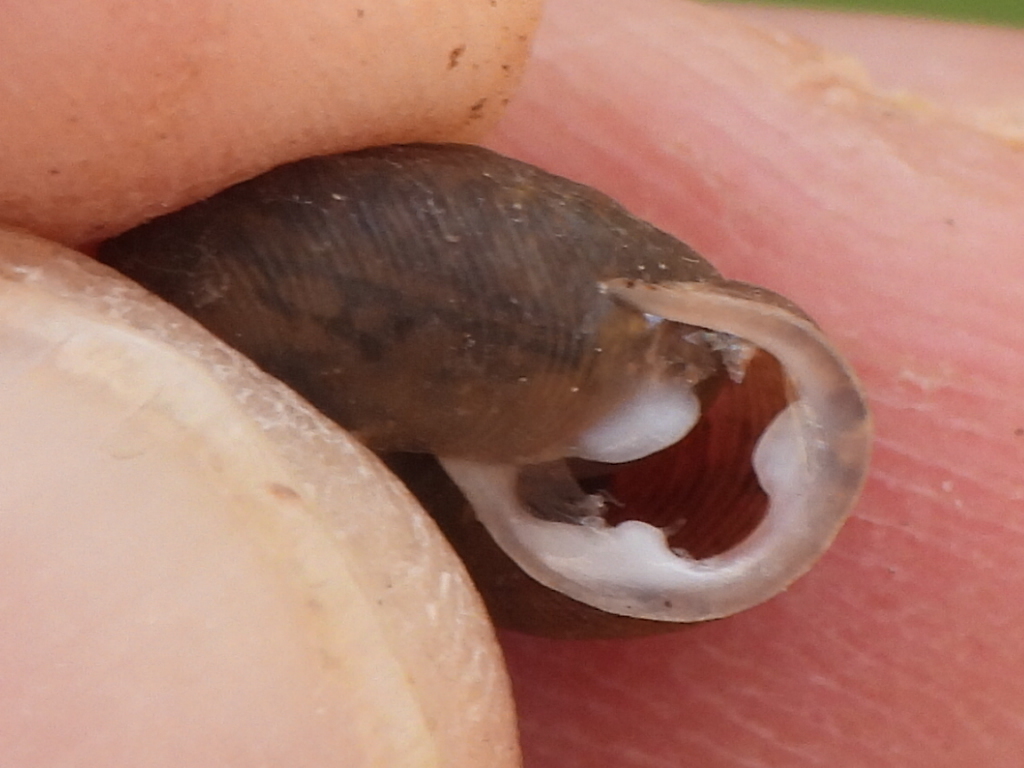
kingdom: Animalia
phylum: Mollusca
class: Gastropoda
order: Stylommatophora
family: Polygyridae
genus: Triodopsis
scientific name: Triodopsis hopetonensis
